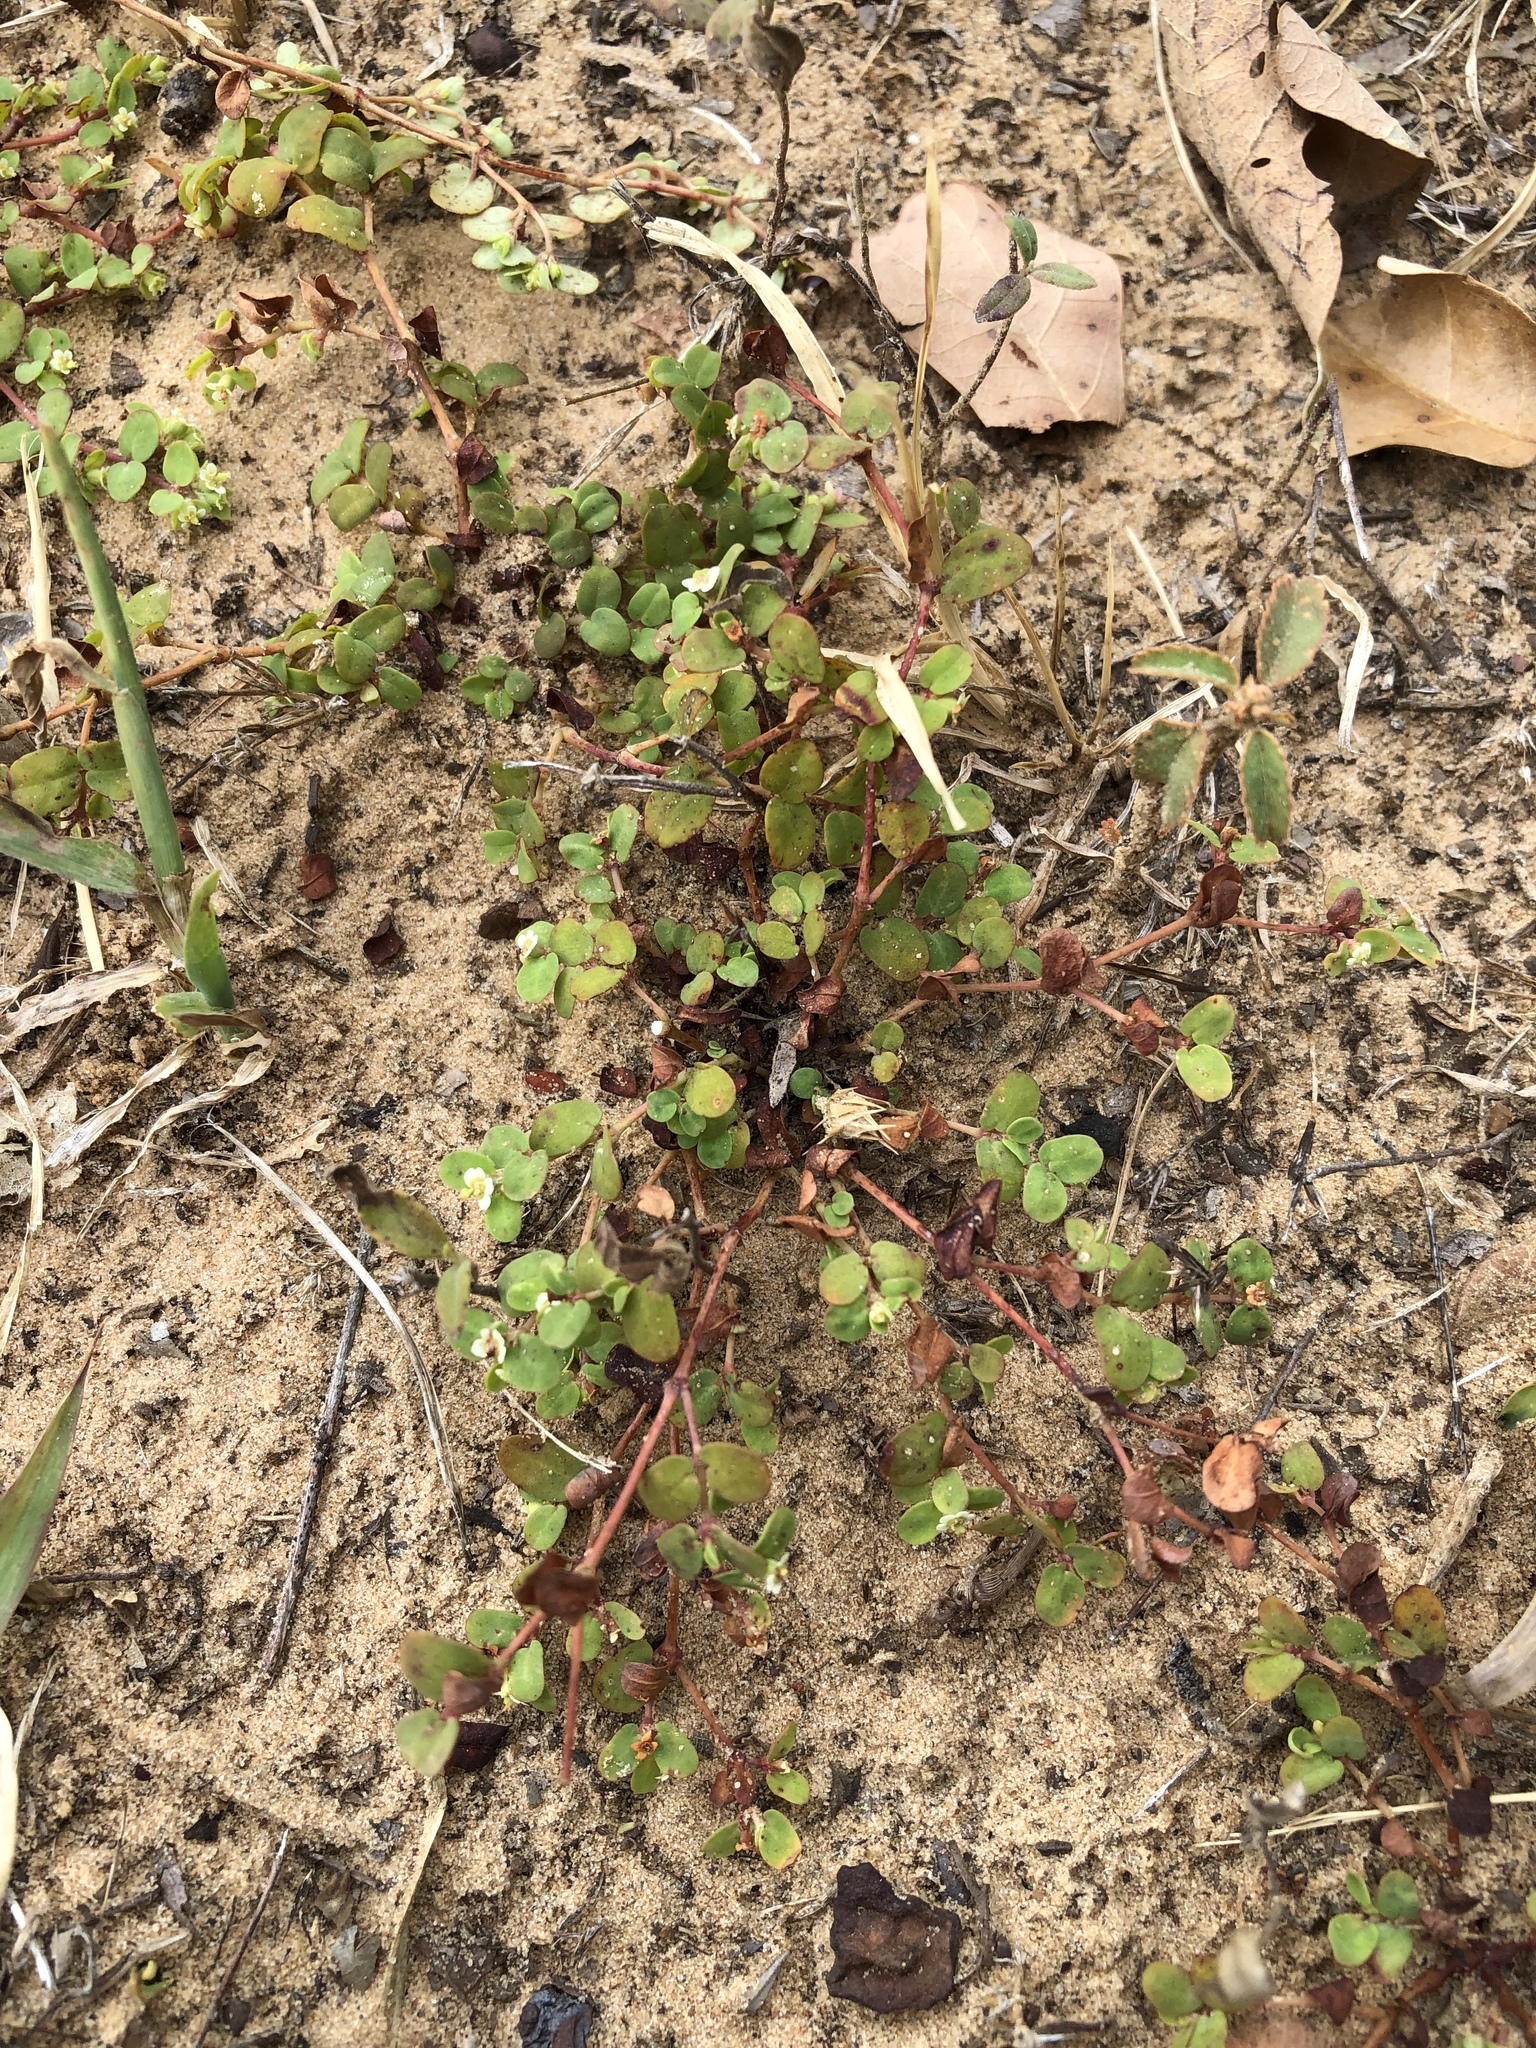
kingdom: Plantae
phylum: Tracheophyta
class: Magnoliopsida
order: Malpighiales
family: Euphorbiaceae
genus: Euphorbia
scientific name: Euphorbia cordifolia
